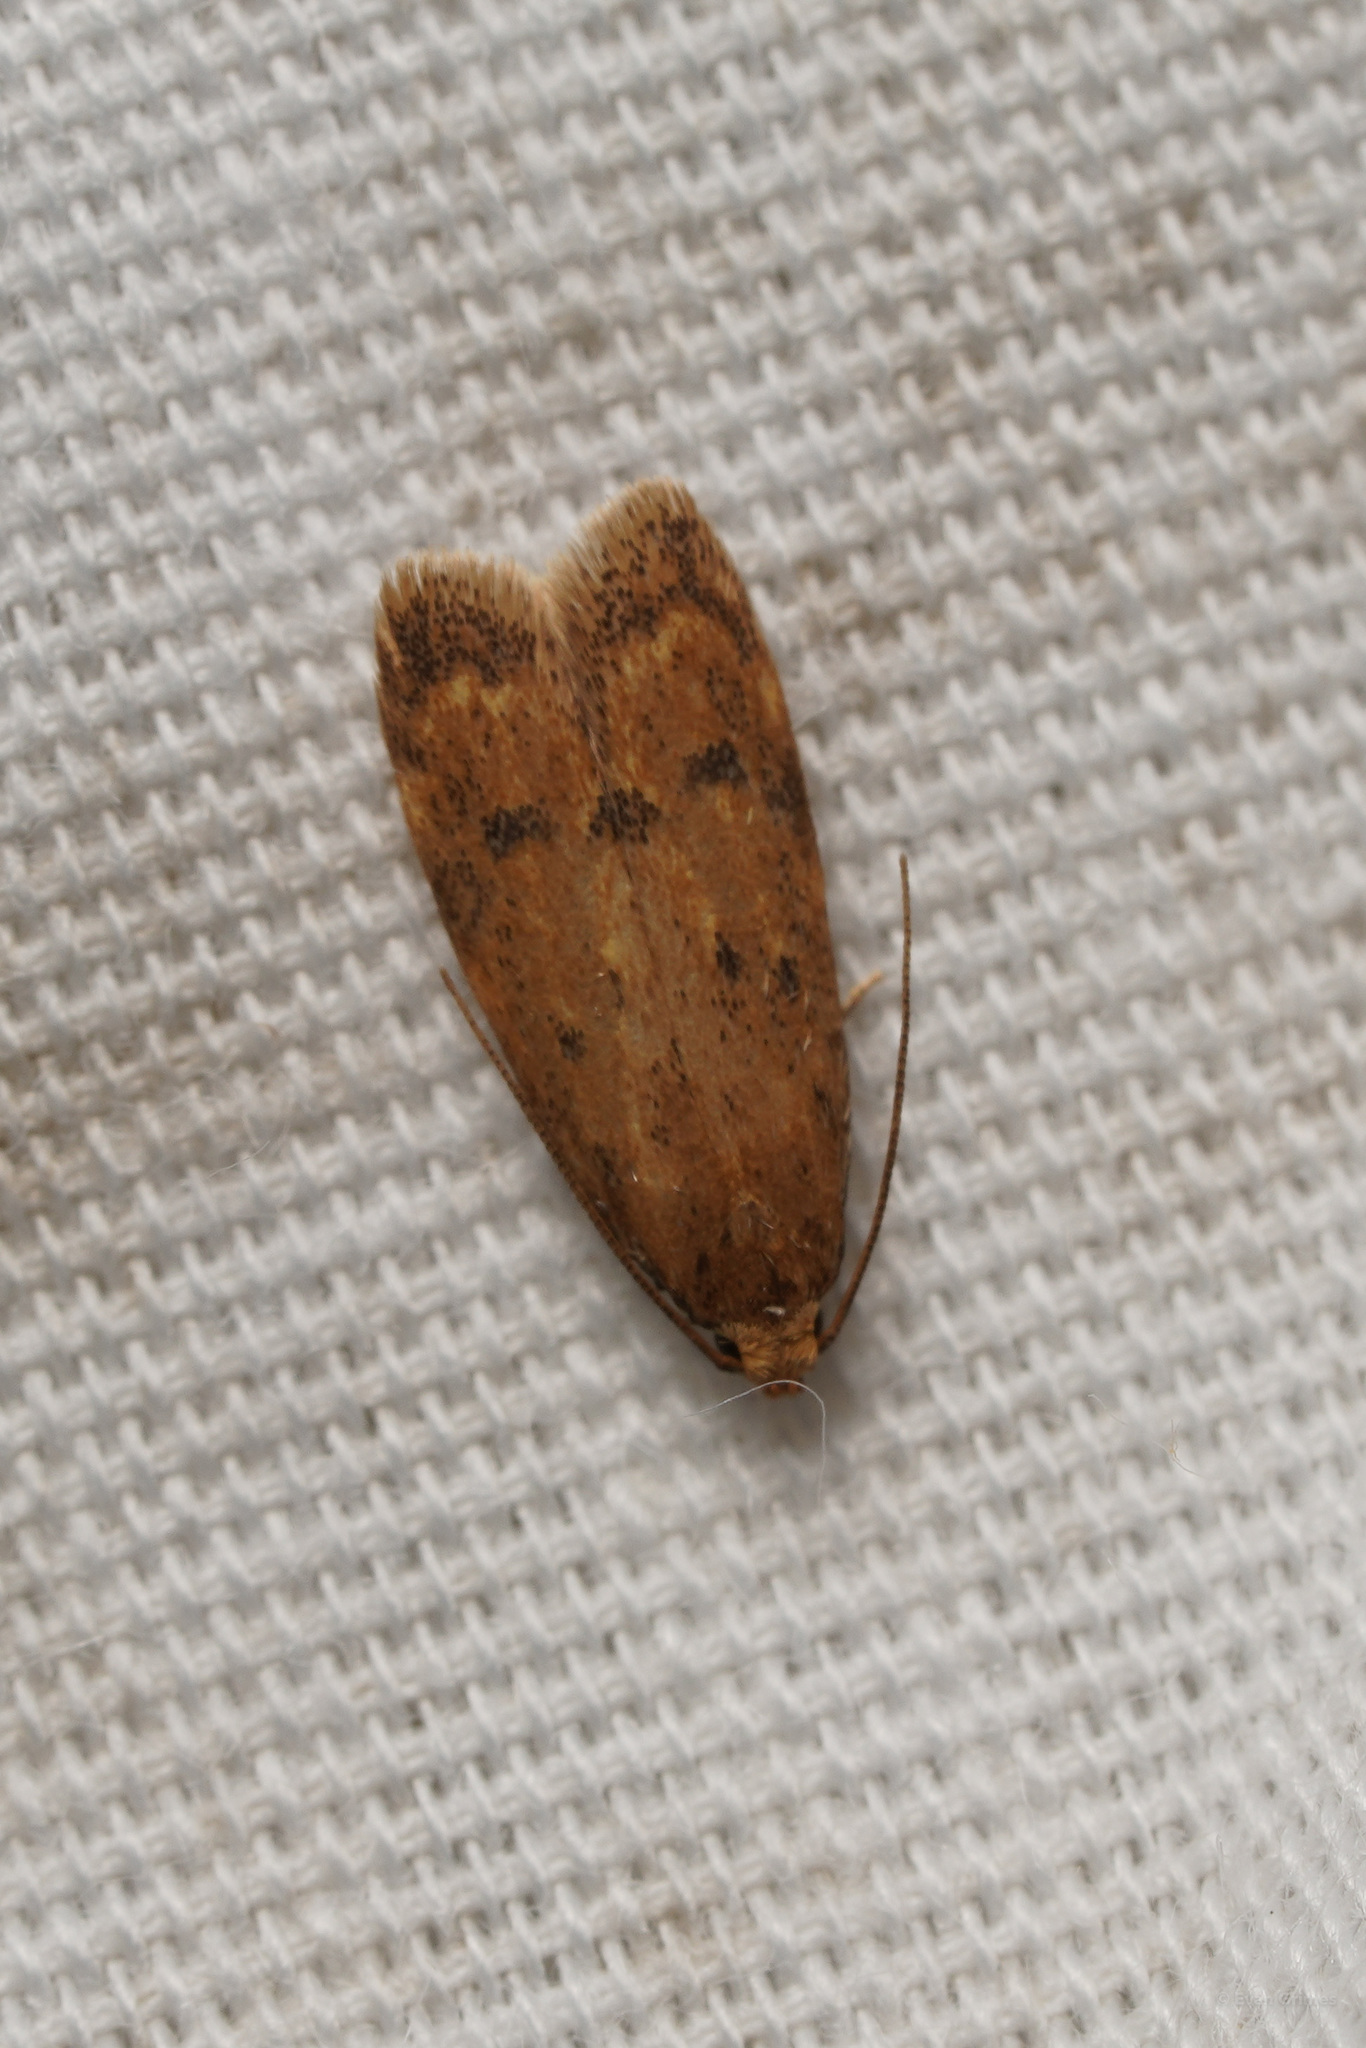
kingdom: Animalia
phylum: Arthropoda
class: Insecta
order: Lepidoptera
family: Depressariidae
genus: Psilocorsis
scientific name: Psilocorsis reflexella
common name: Dotted leaftier moth
